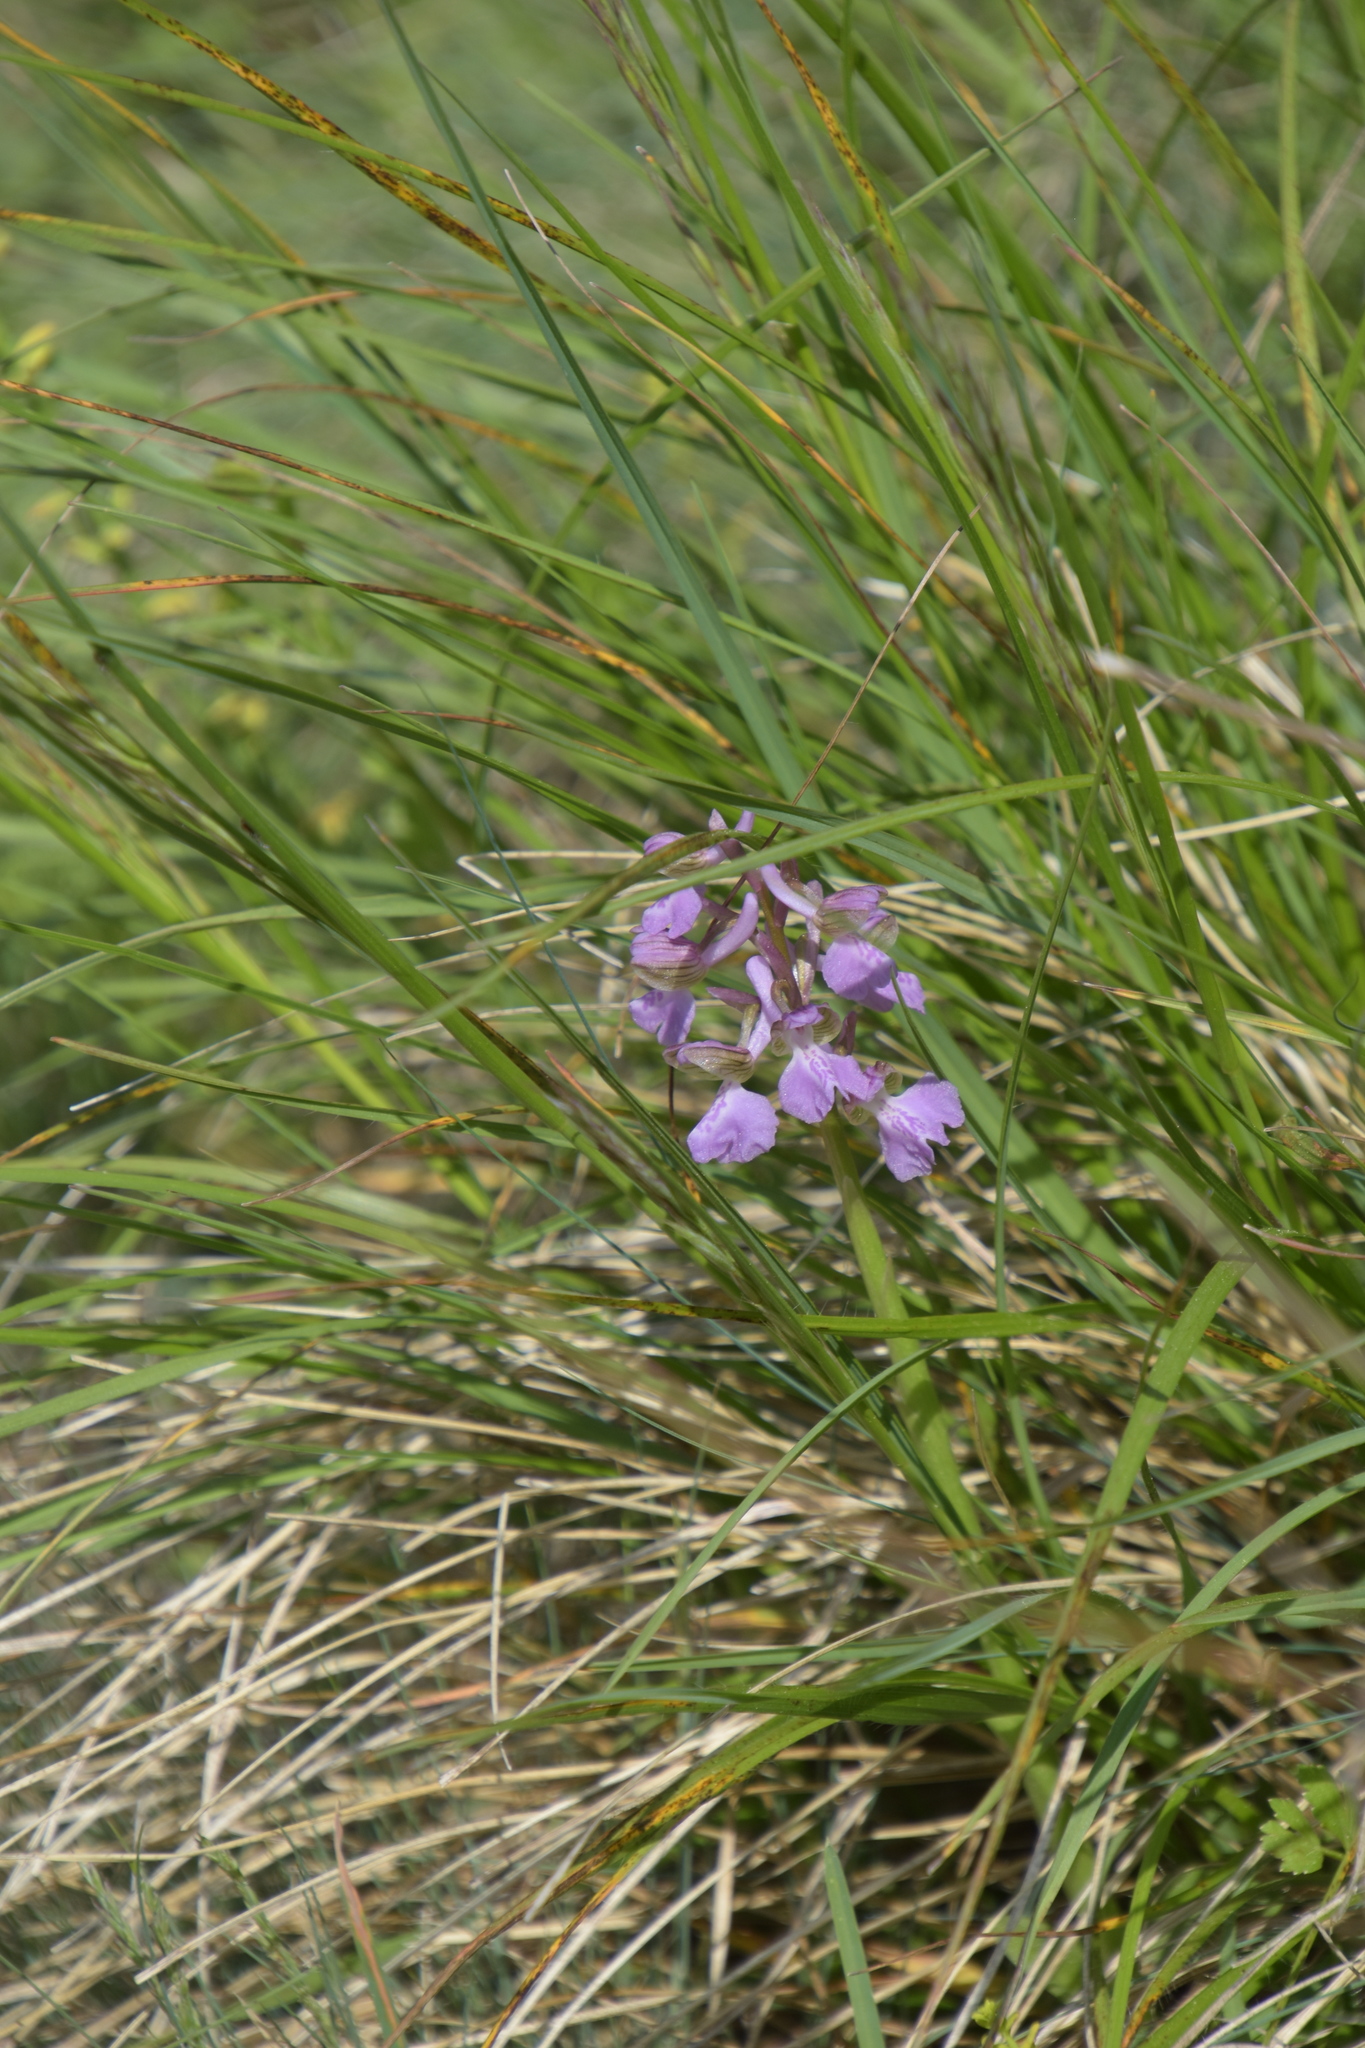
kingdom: Plantae
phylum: Tracheophyta
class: Liliopsida
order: Asparagales
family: Orchidaceae
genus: Anacamptis
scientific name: Anacamptis morio
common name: Green-winged orchid
